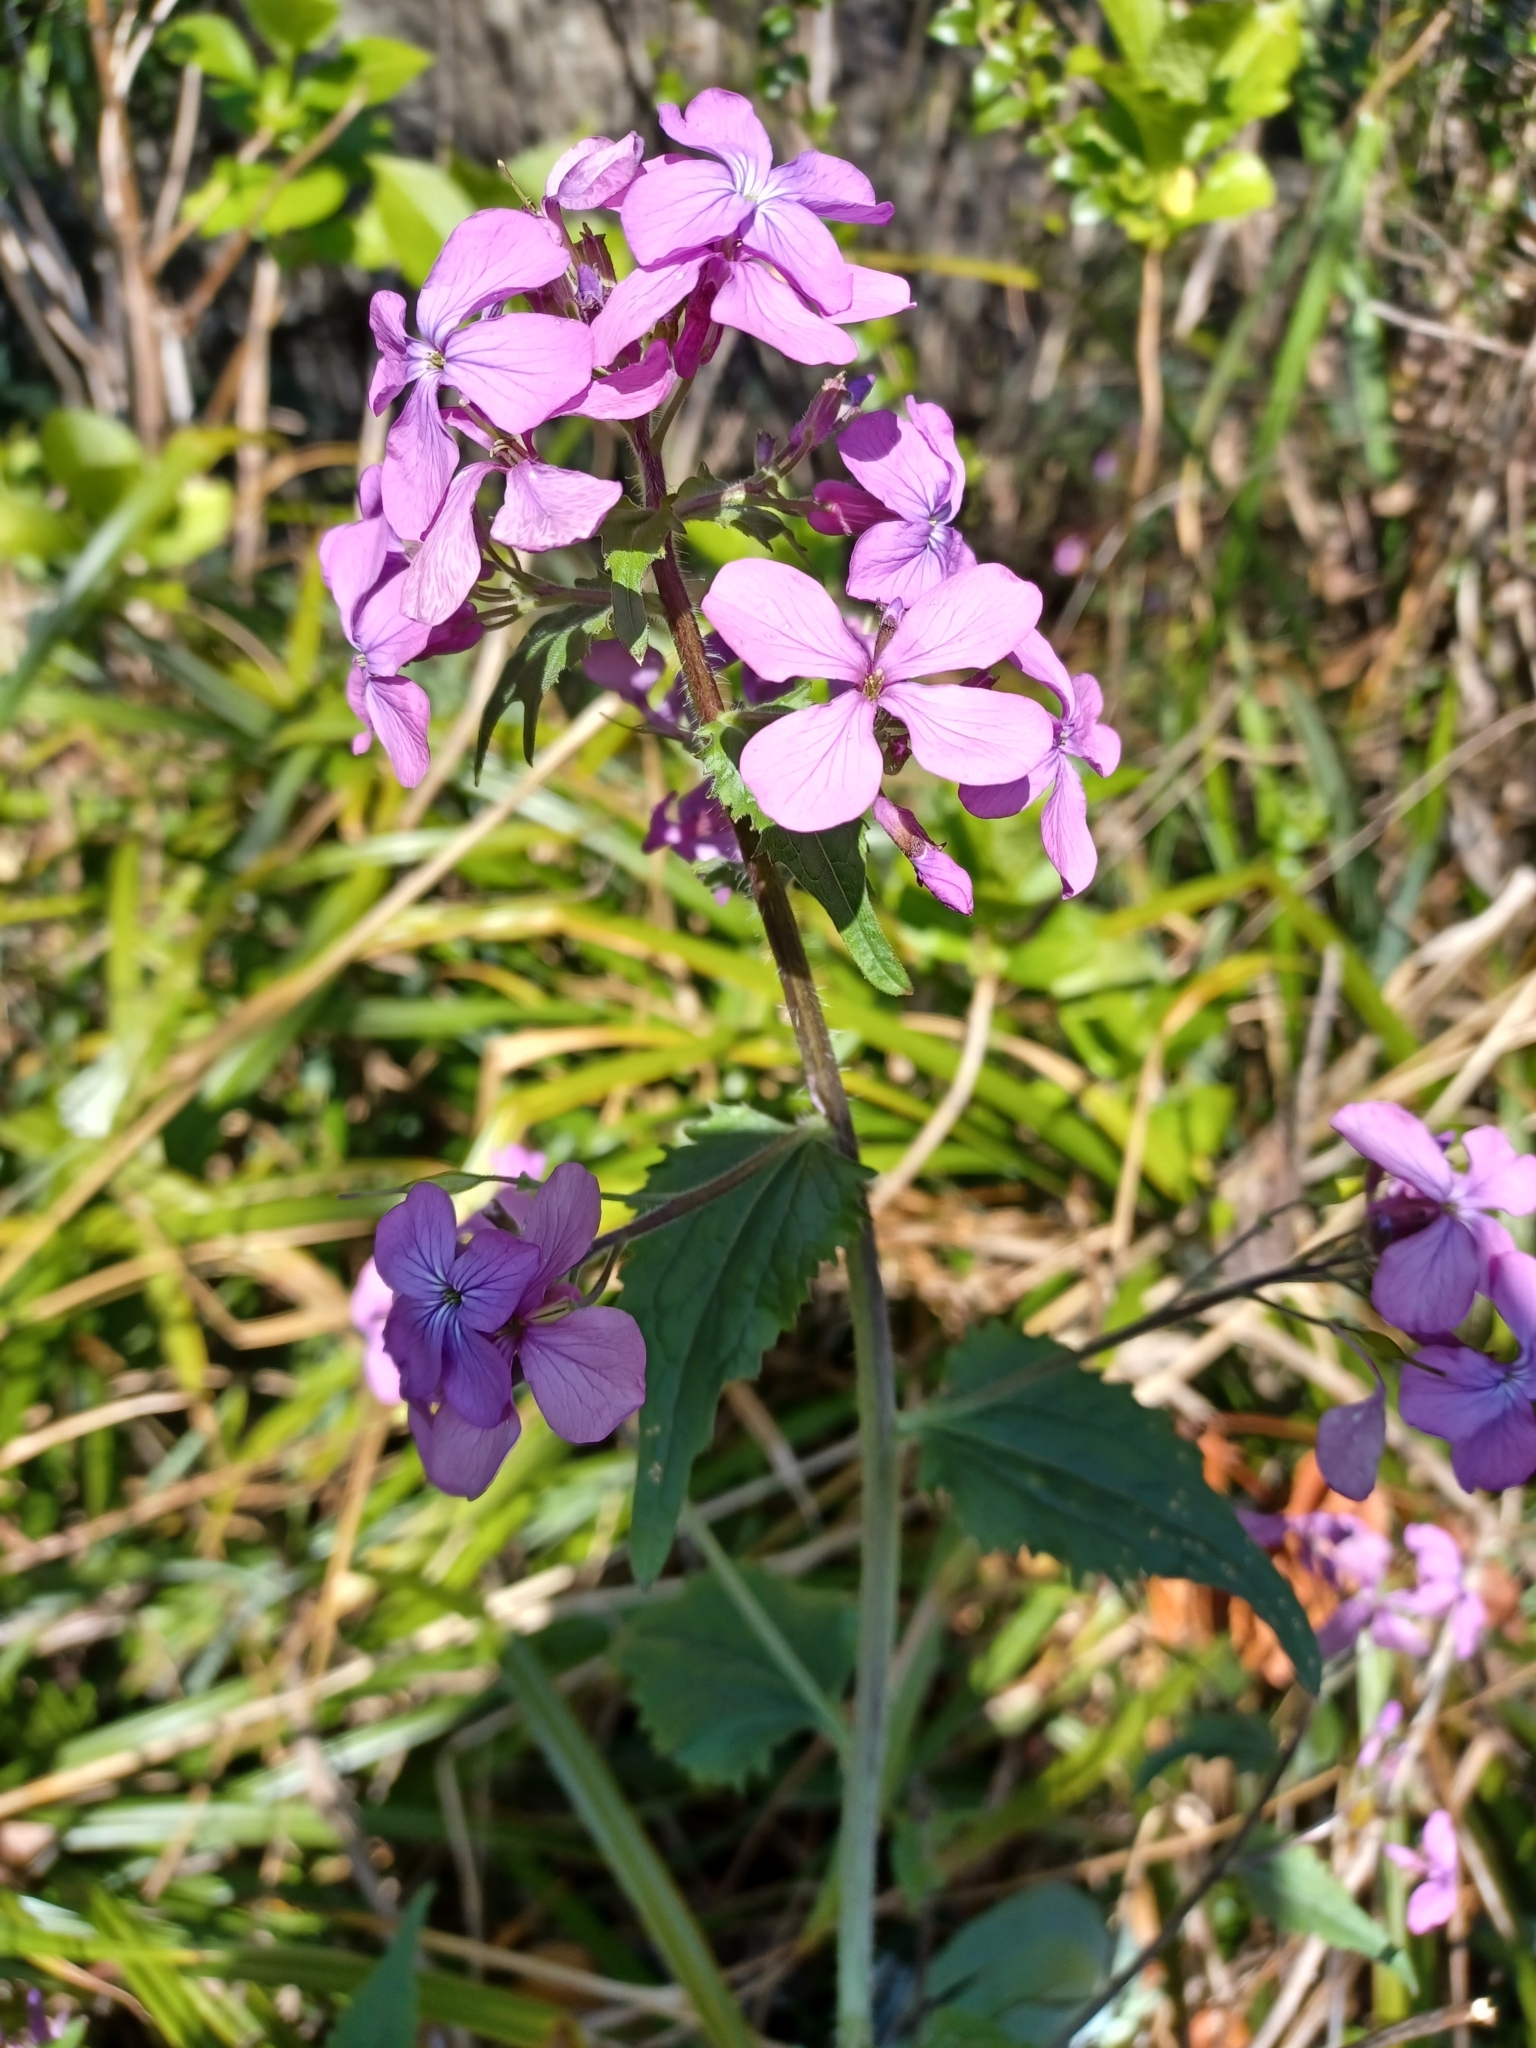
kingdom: Plantae
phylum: Tracheophyta
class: Magnoliopsida
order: Brassicales
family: Brassicaceae
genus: Lunaria
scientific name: Lunaria annua
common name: Honesty
